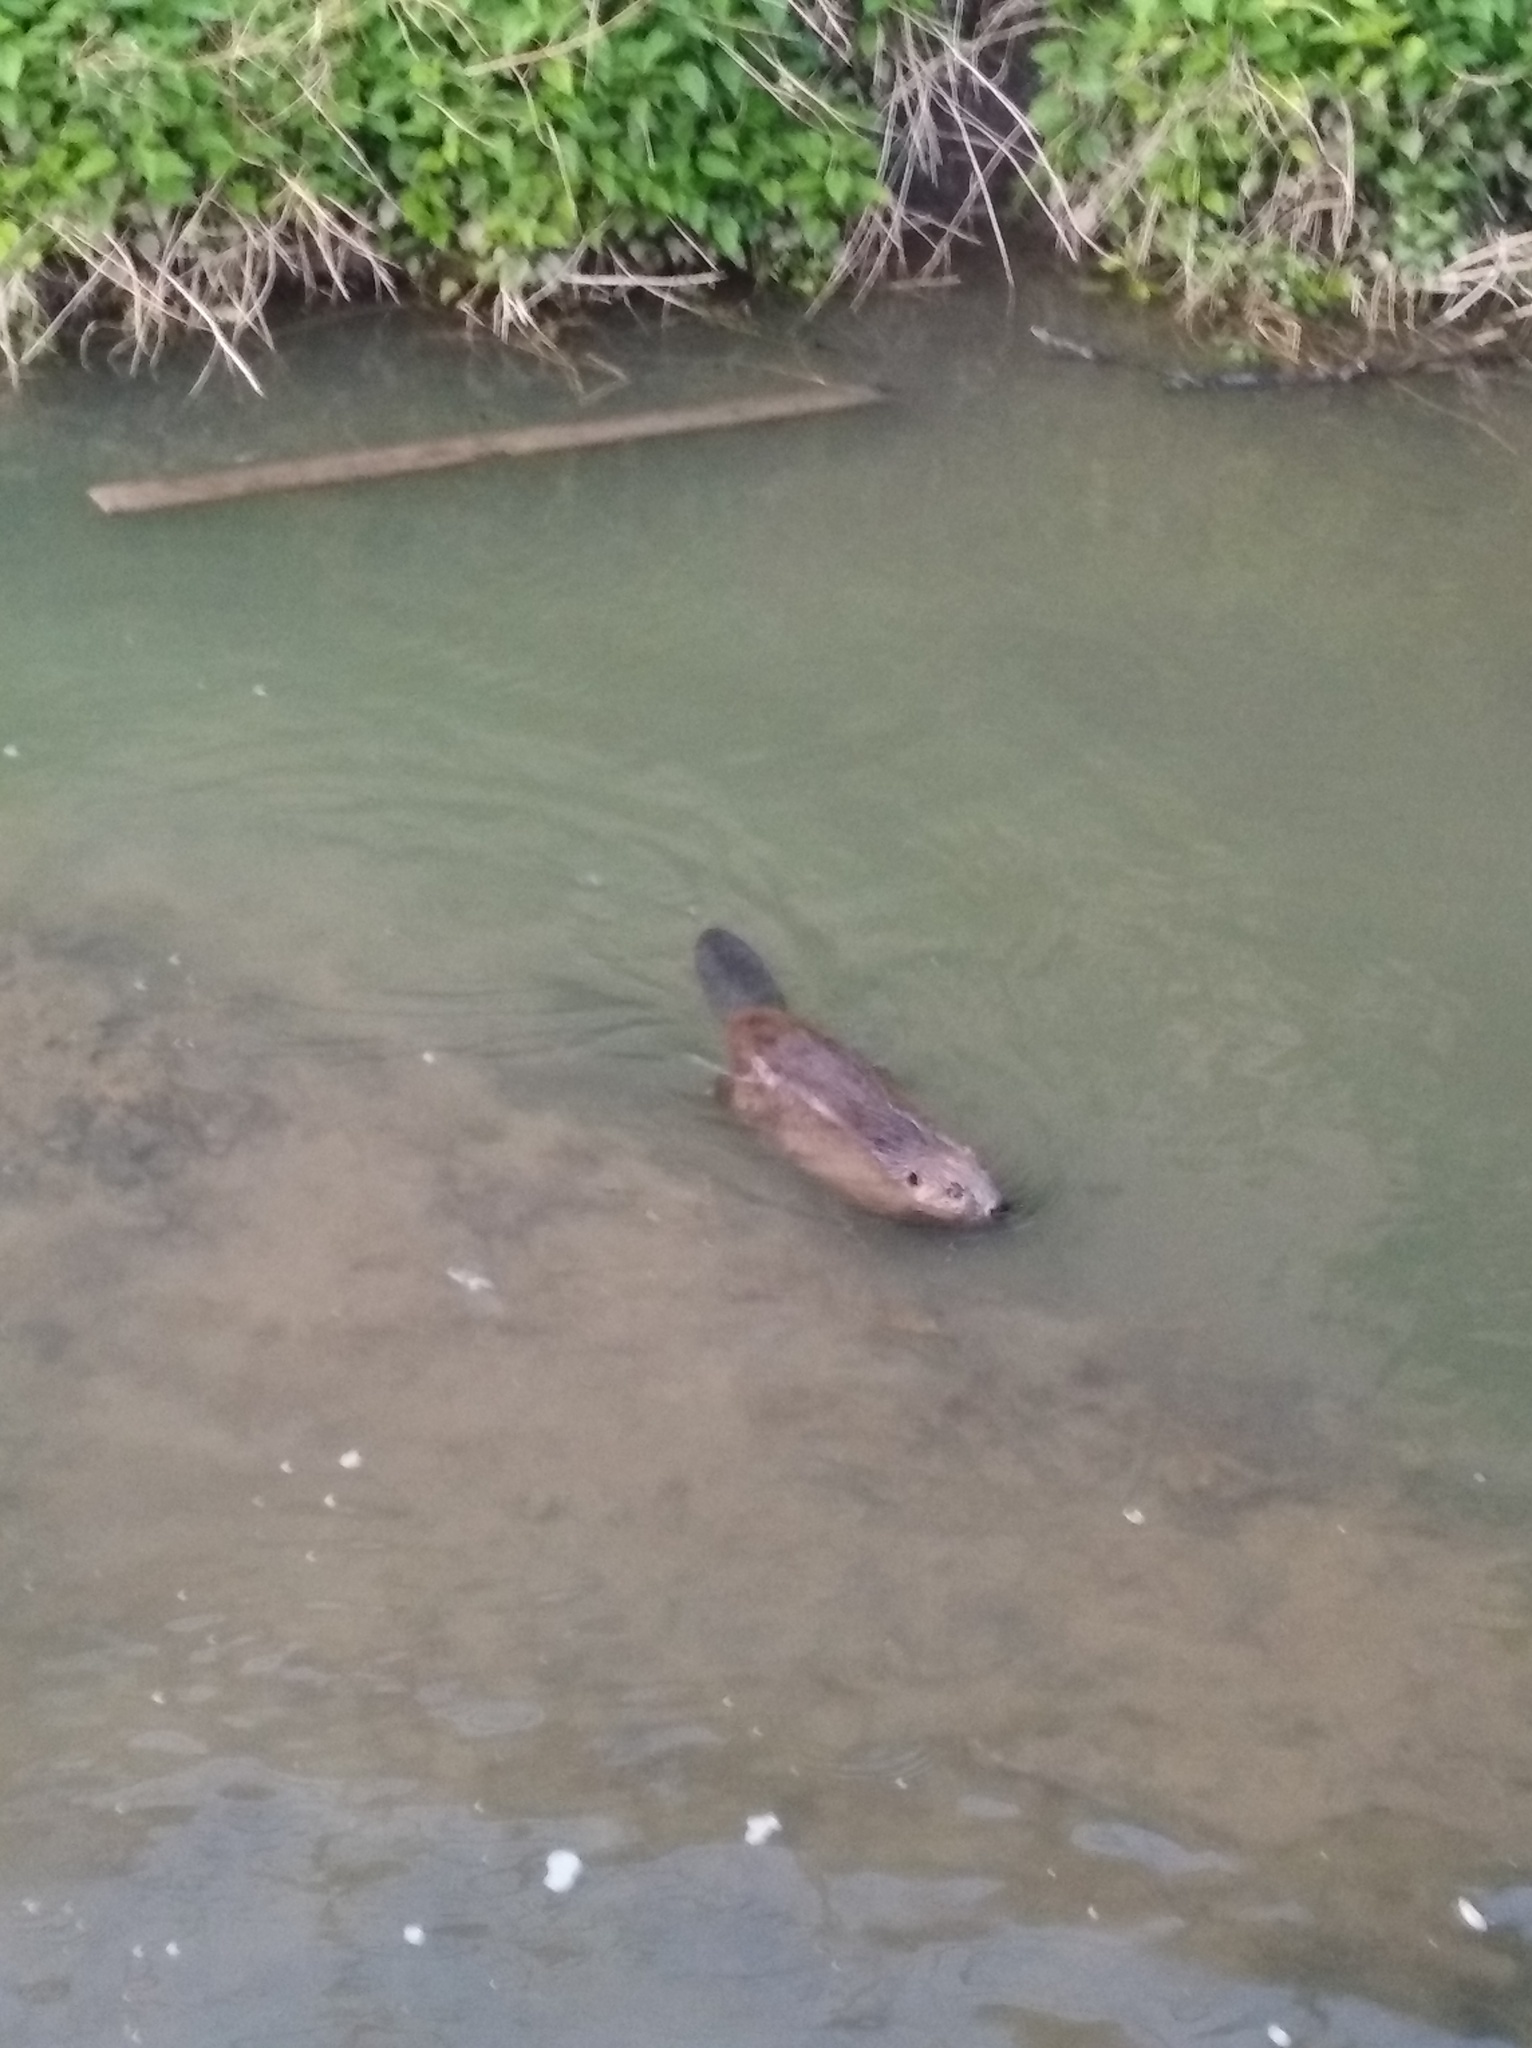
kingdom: Animalia
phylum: Chordata
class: Mammalia
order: Rodentia
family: Castoridae
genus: Castor
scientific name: Castor fiber
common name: Eurasian beaver
